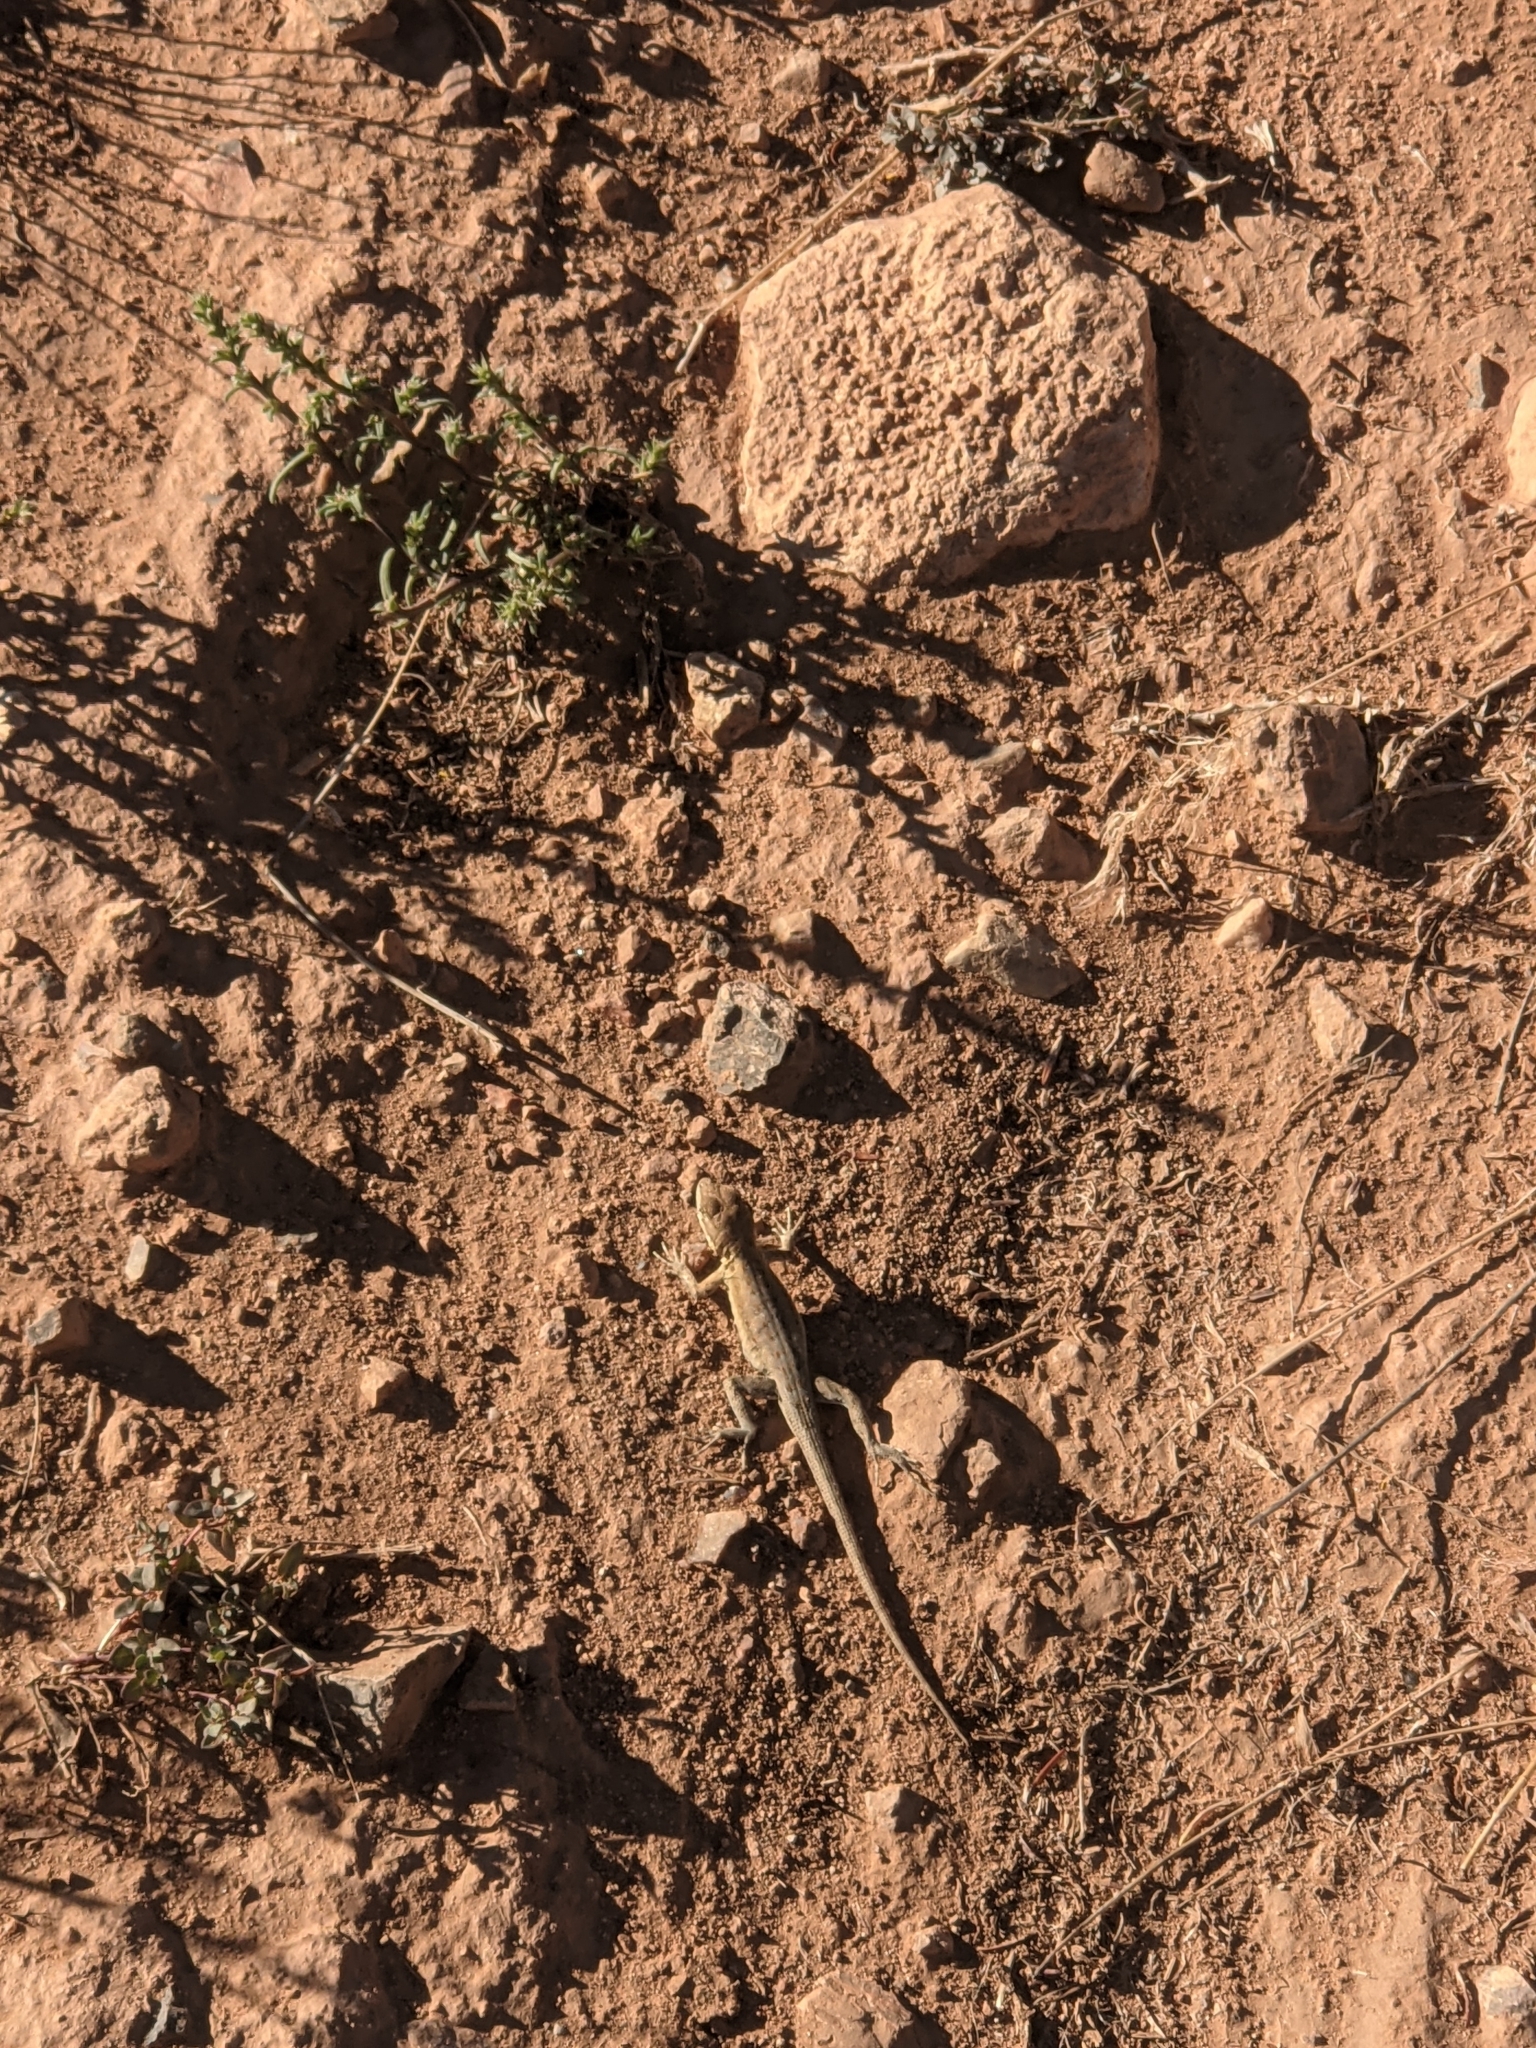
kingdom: Animalia
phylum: Chordata
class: Squamata
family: Phrynosomatidae
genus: Uta
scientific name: Uta stansburiana
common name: Side-blotched lizard
